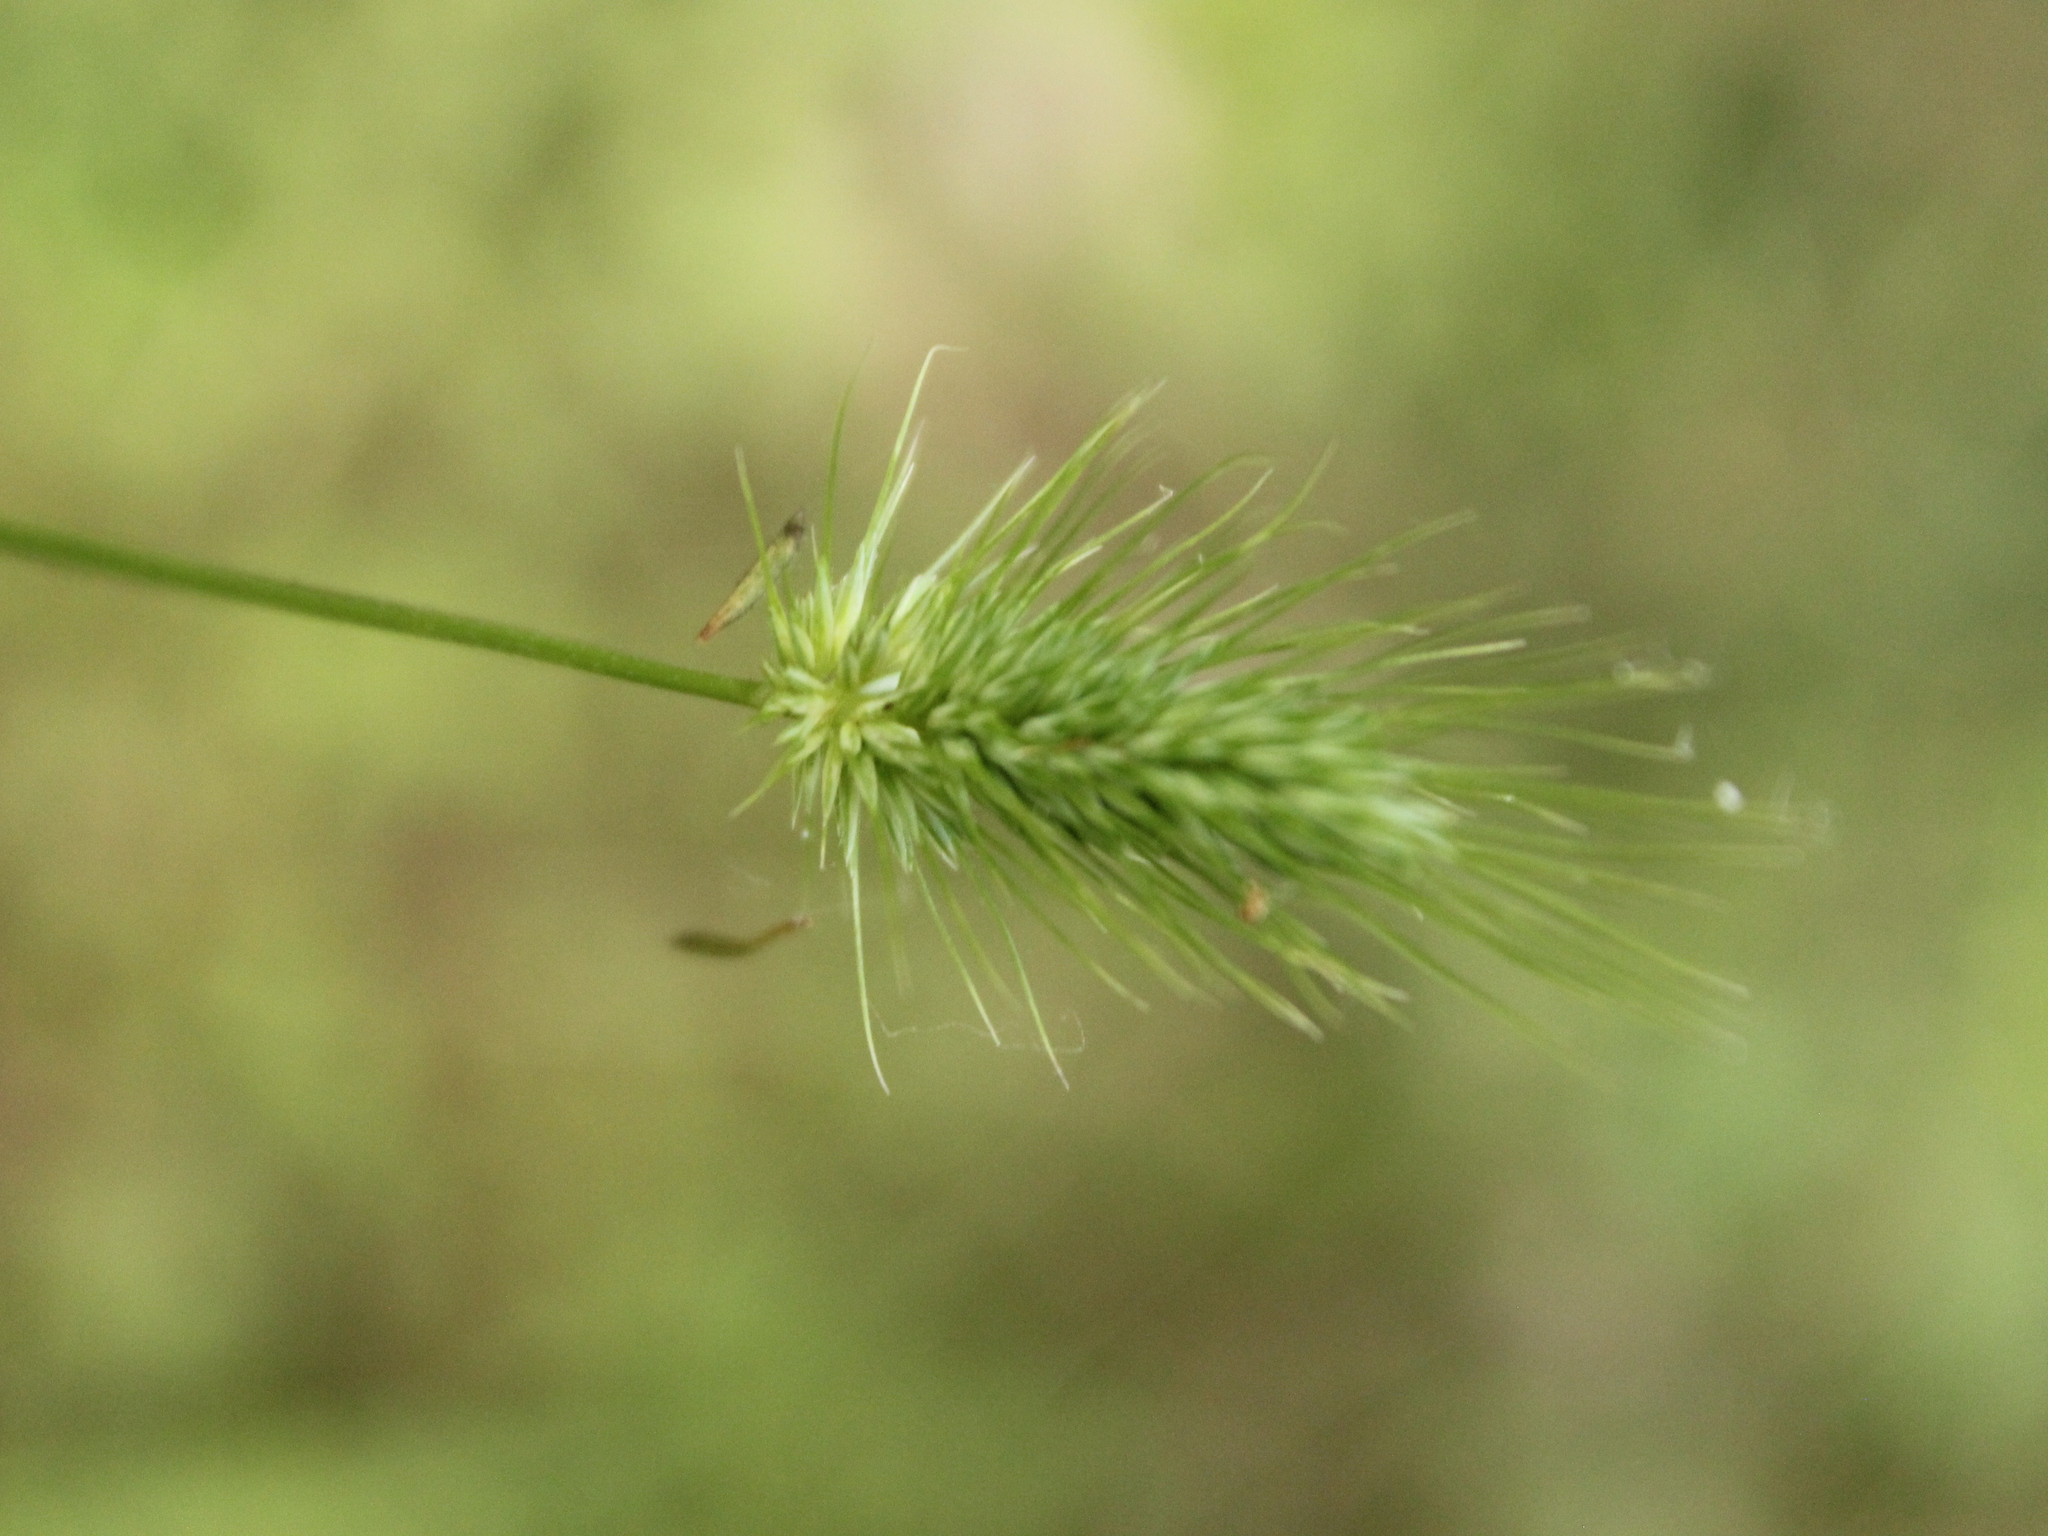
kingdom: Plantae
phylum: Tracheophyta
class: Liliopsida
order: Poales
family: Poaceae
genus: Echinopogon
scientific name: Echinopogon ovatus
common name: Hedgehog-grass
